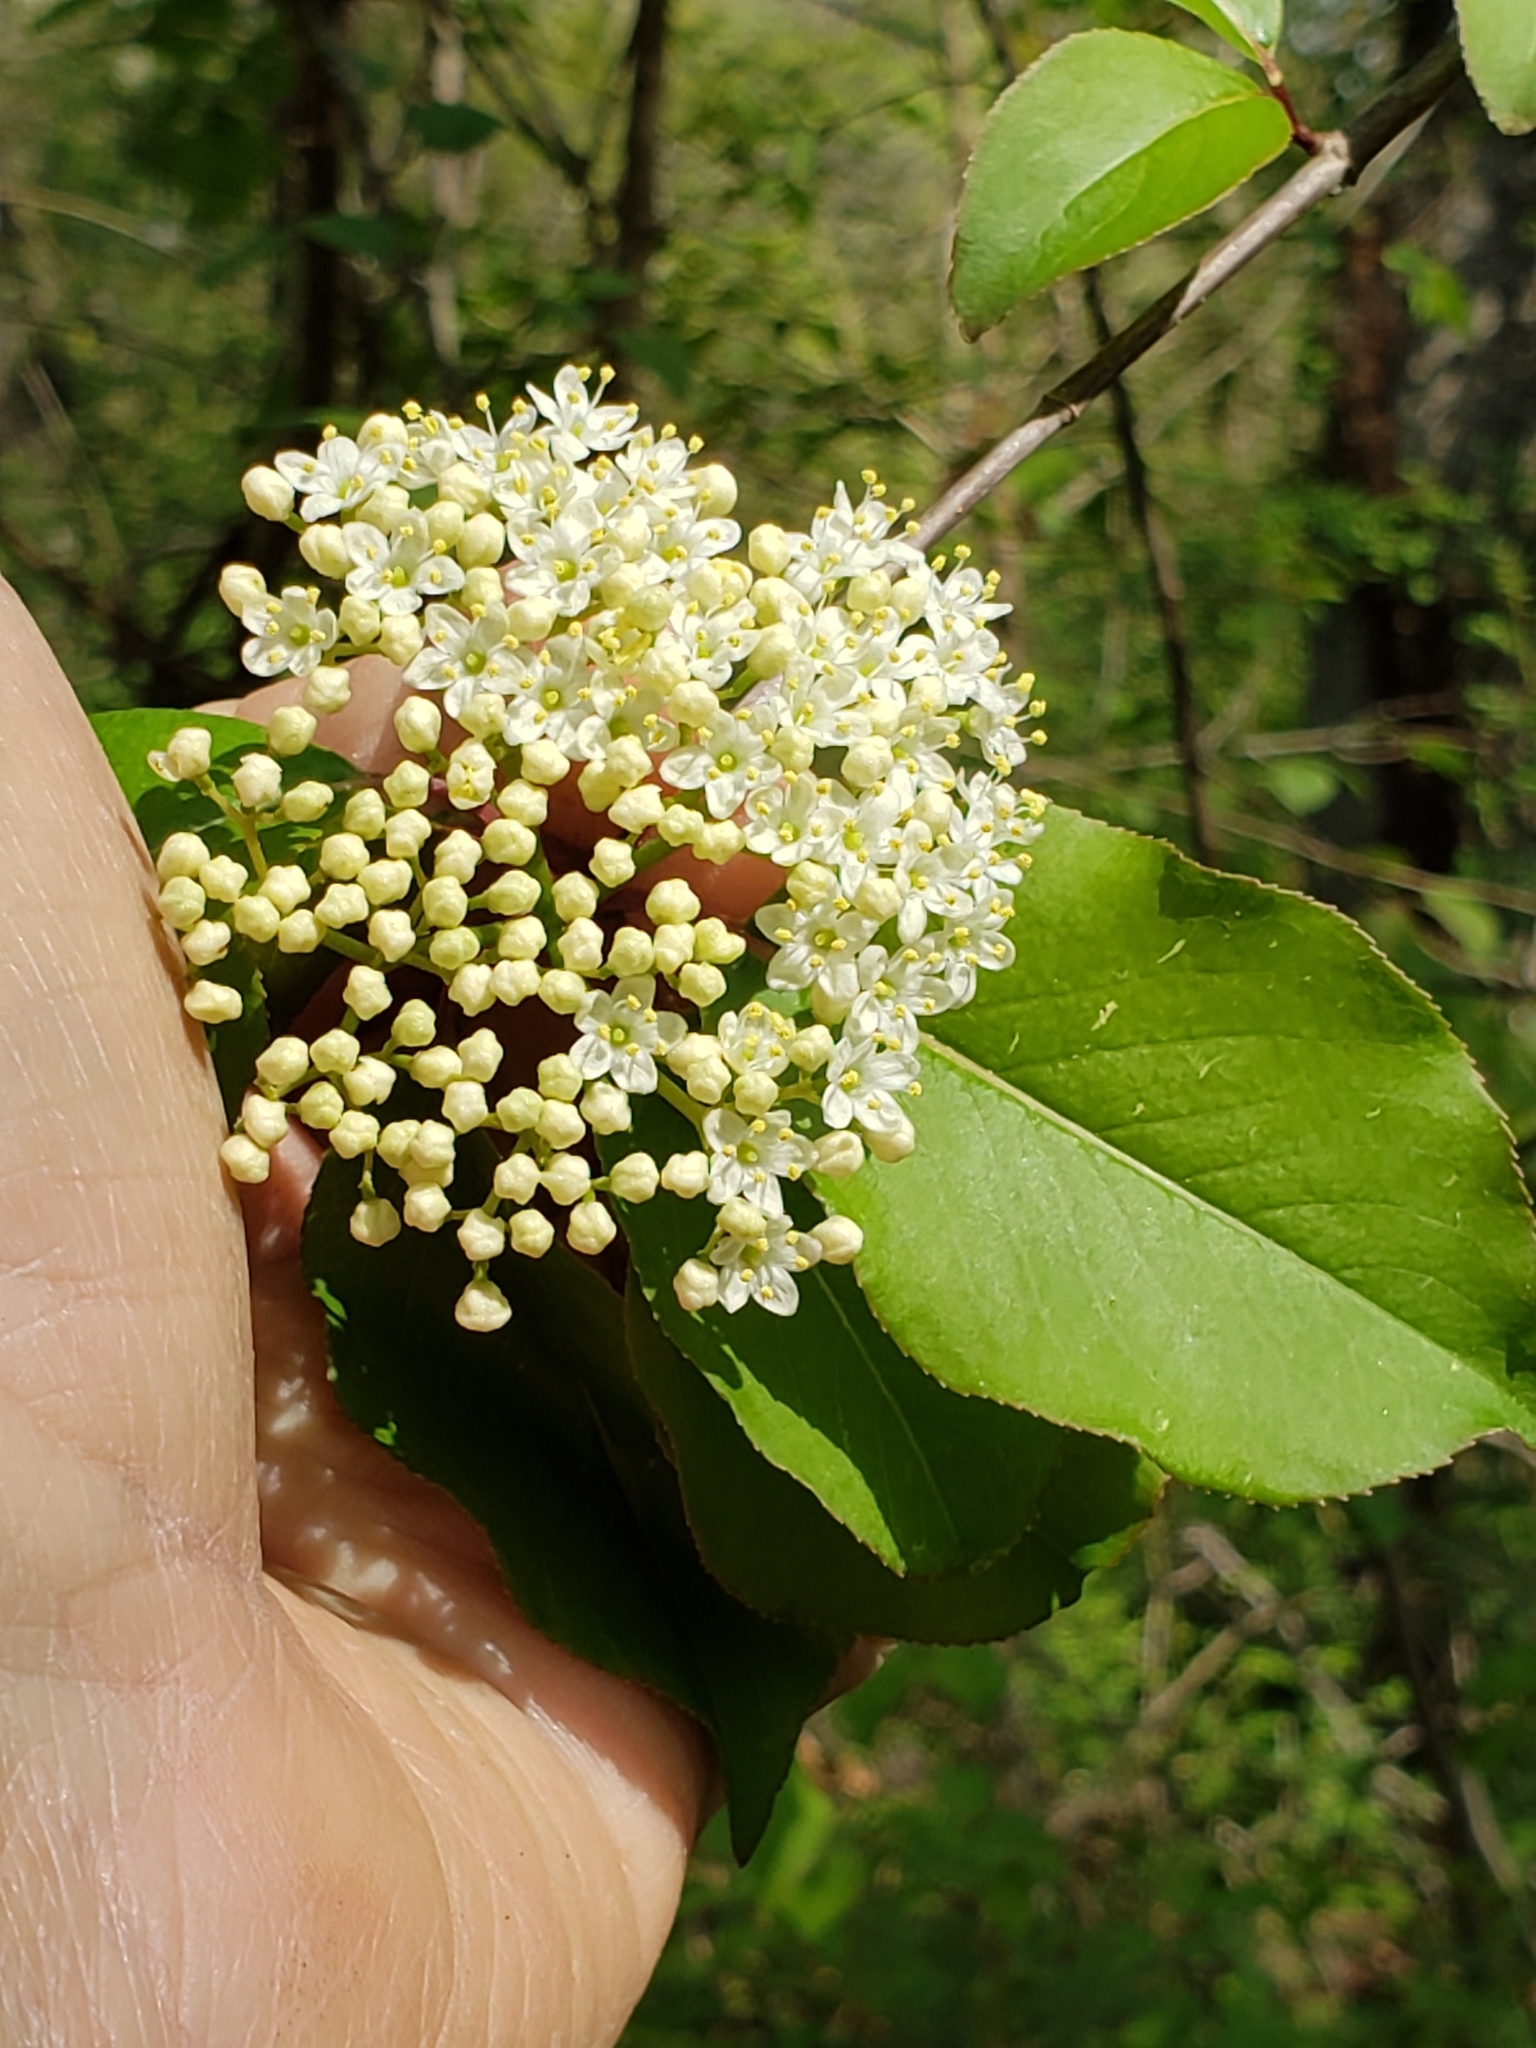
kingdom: Plantae
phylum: Tracheophyta
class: Magnoliopsida
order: Dipsacales
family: Viburnaceae
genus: Viburnum
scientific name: Viburnum prunifolium
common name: Black haw
